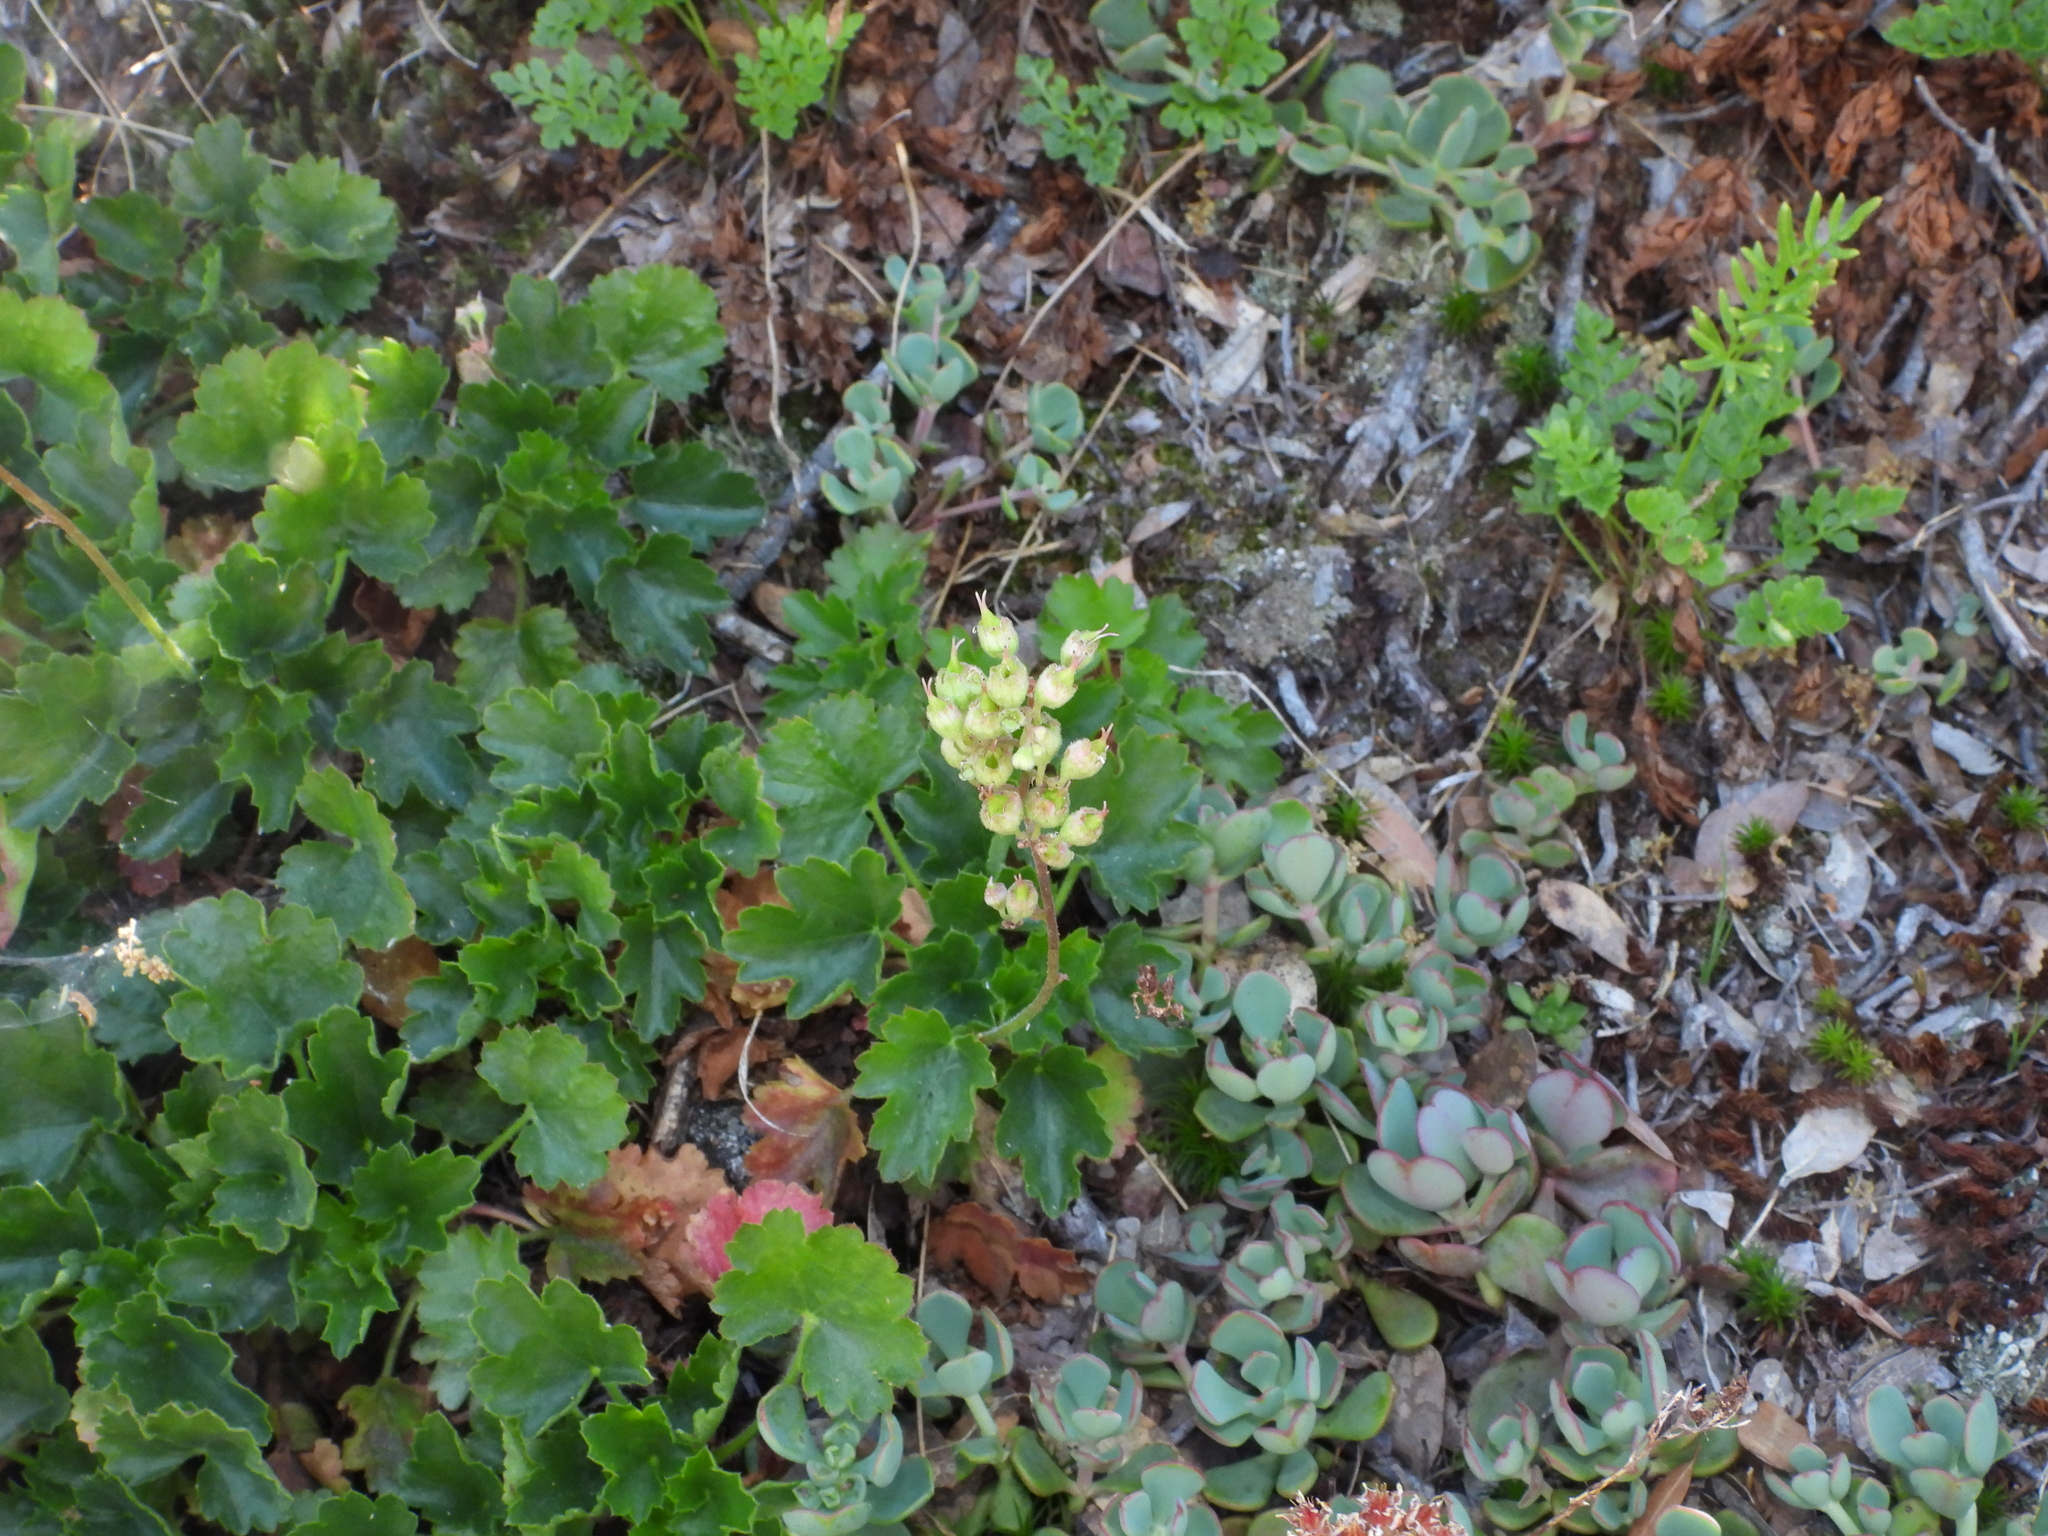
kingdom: Plantae
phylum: Tracheophyta
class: Magnoliopsida
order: Saxifragales
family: Saxifragaceae
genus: Heuchera
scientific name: Heuchera merriamii
